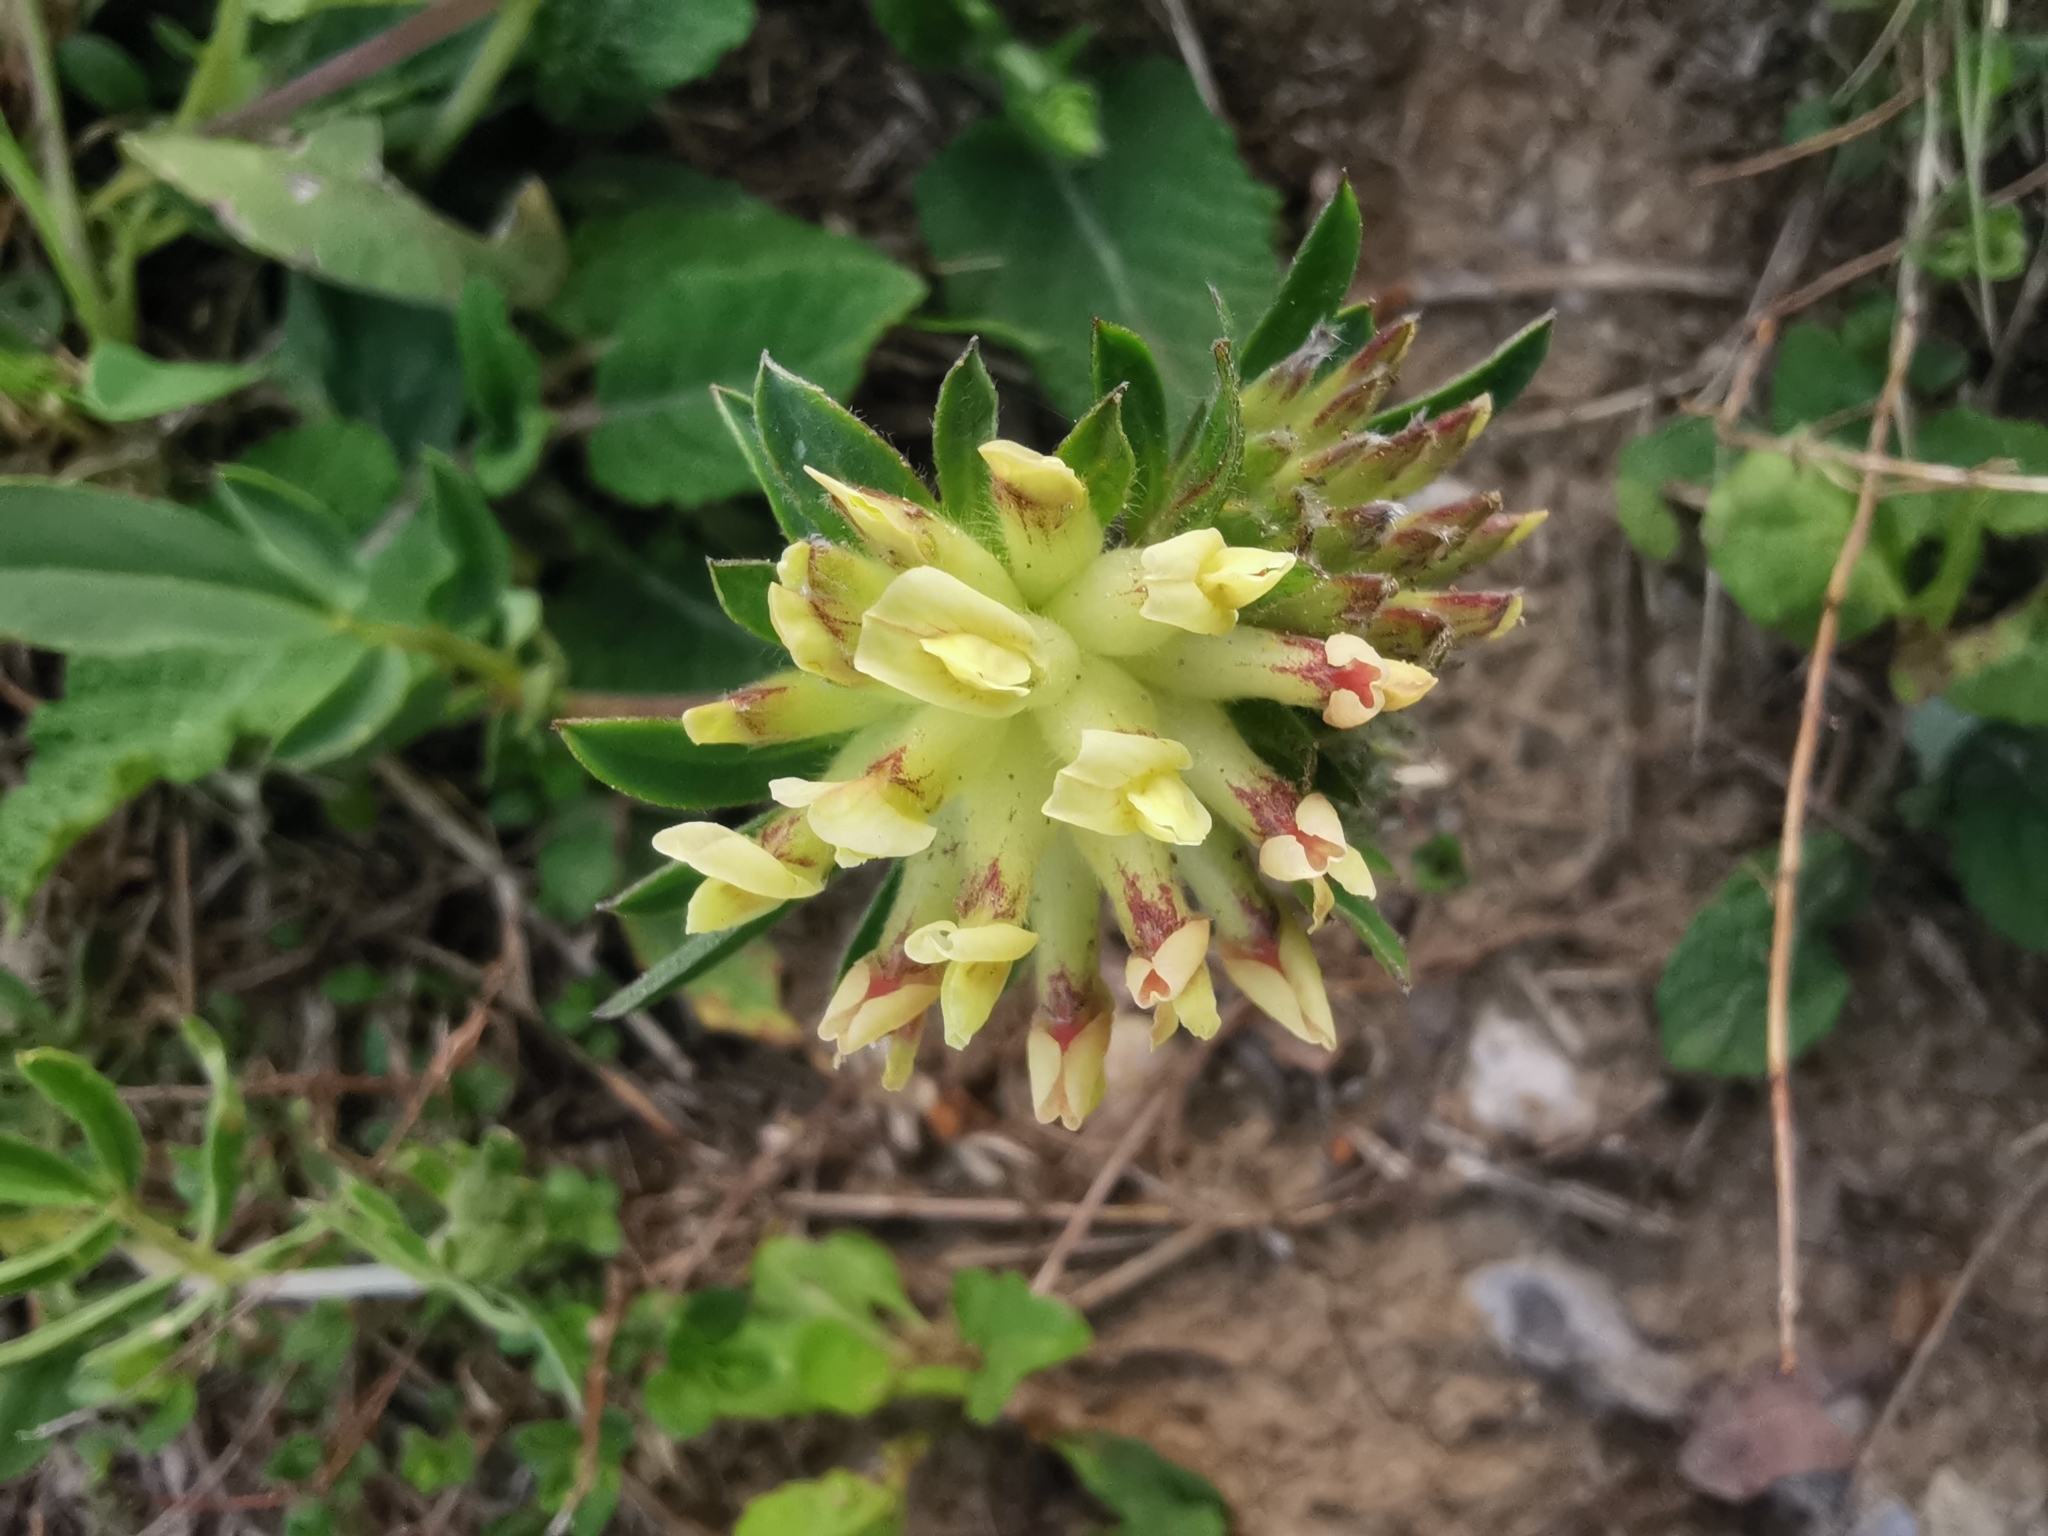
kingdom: Plantae
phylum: Tracheophyta
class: Magnoliopsida
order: Fabales
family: Fabaceae
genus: Anthyllis
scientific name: Anthyllis vulneraria
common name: Kidney vetch
